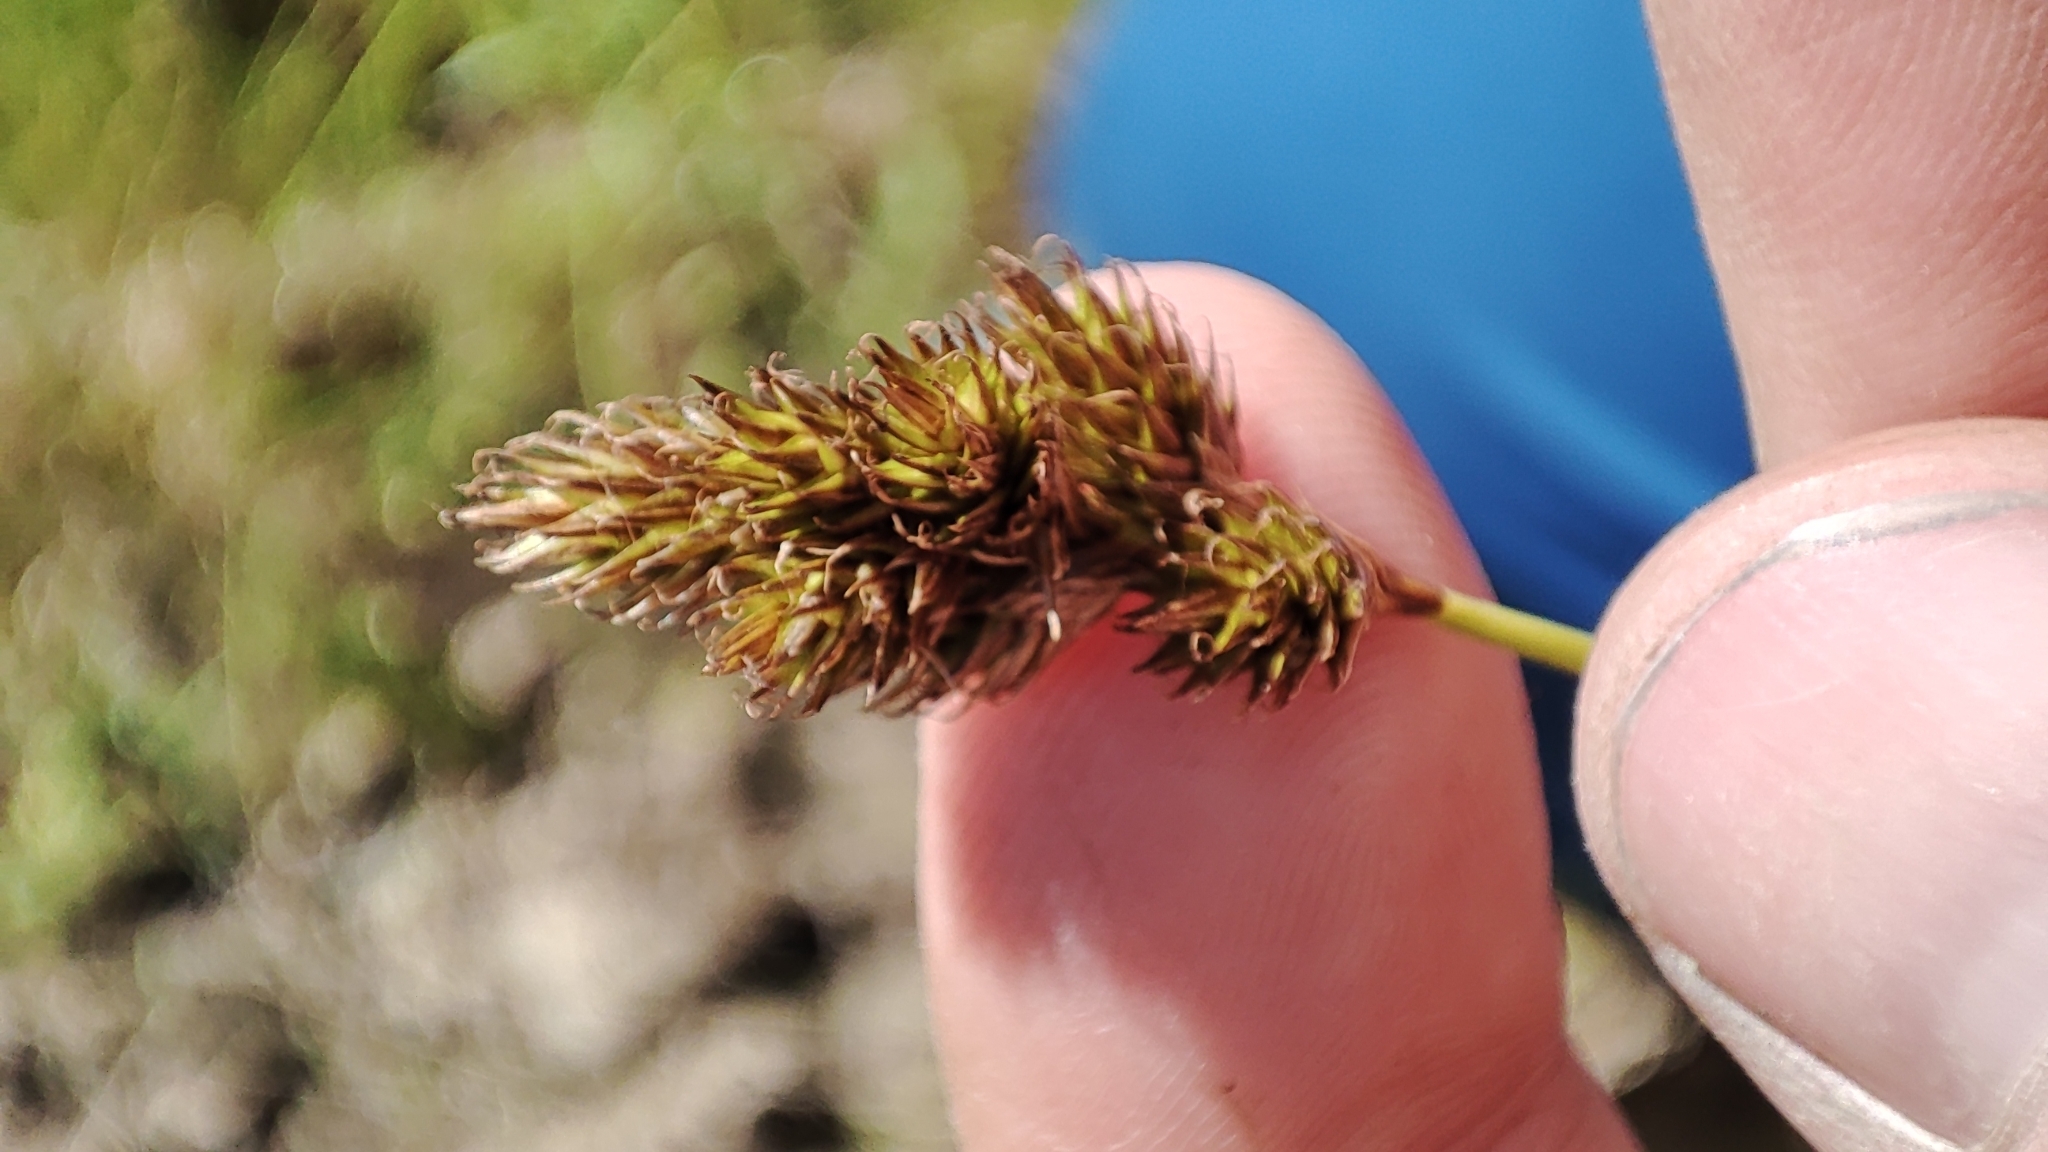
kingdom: Plantae
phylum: Tracheophyta
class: Liliopsida
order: Poales
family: Cyperaceae
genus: Carex
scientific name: Carex leporina
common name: Oval sedge
